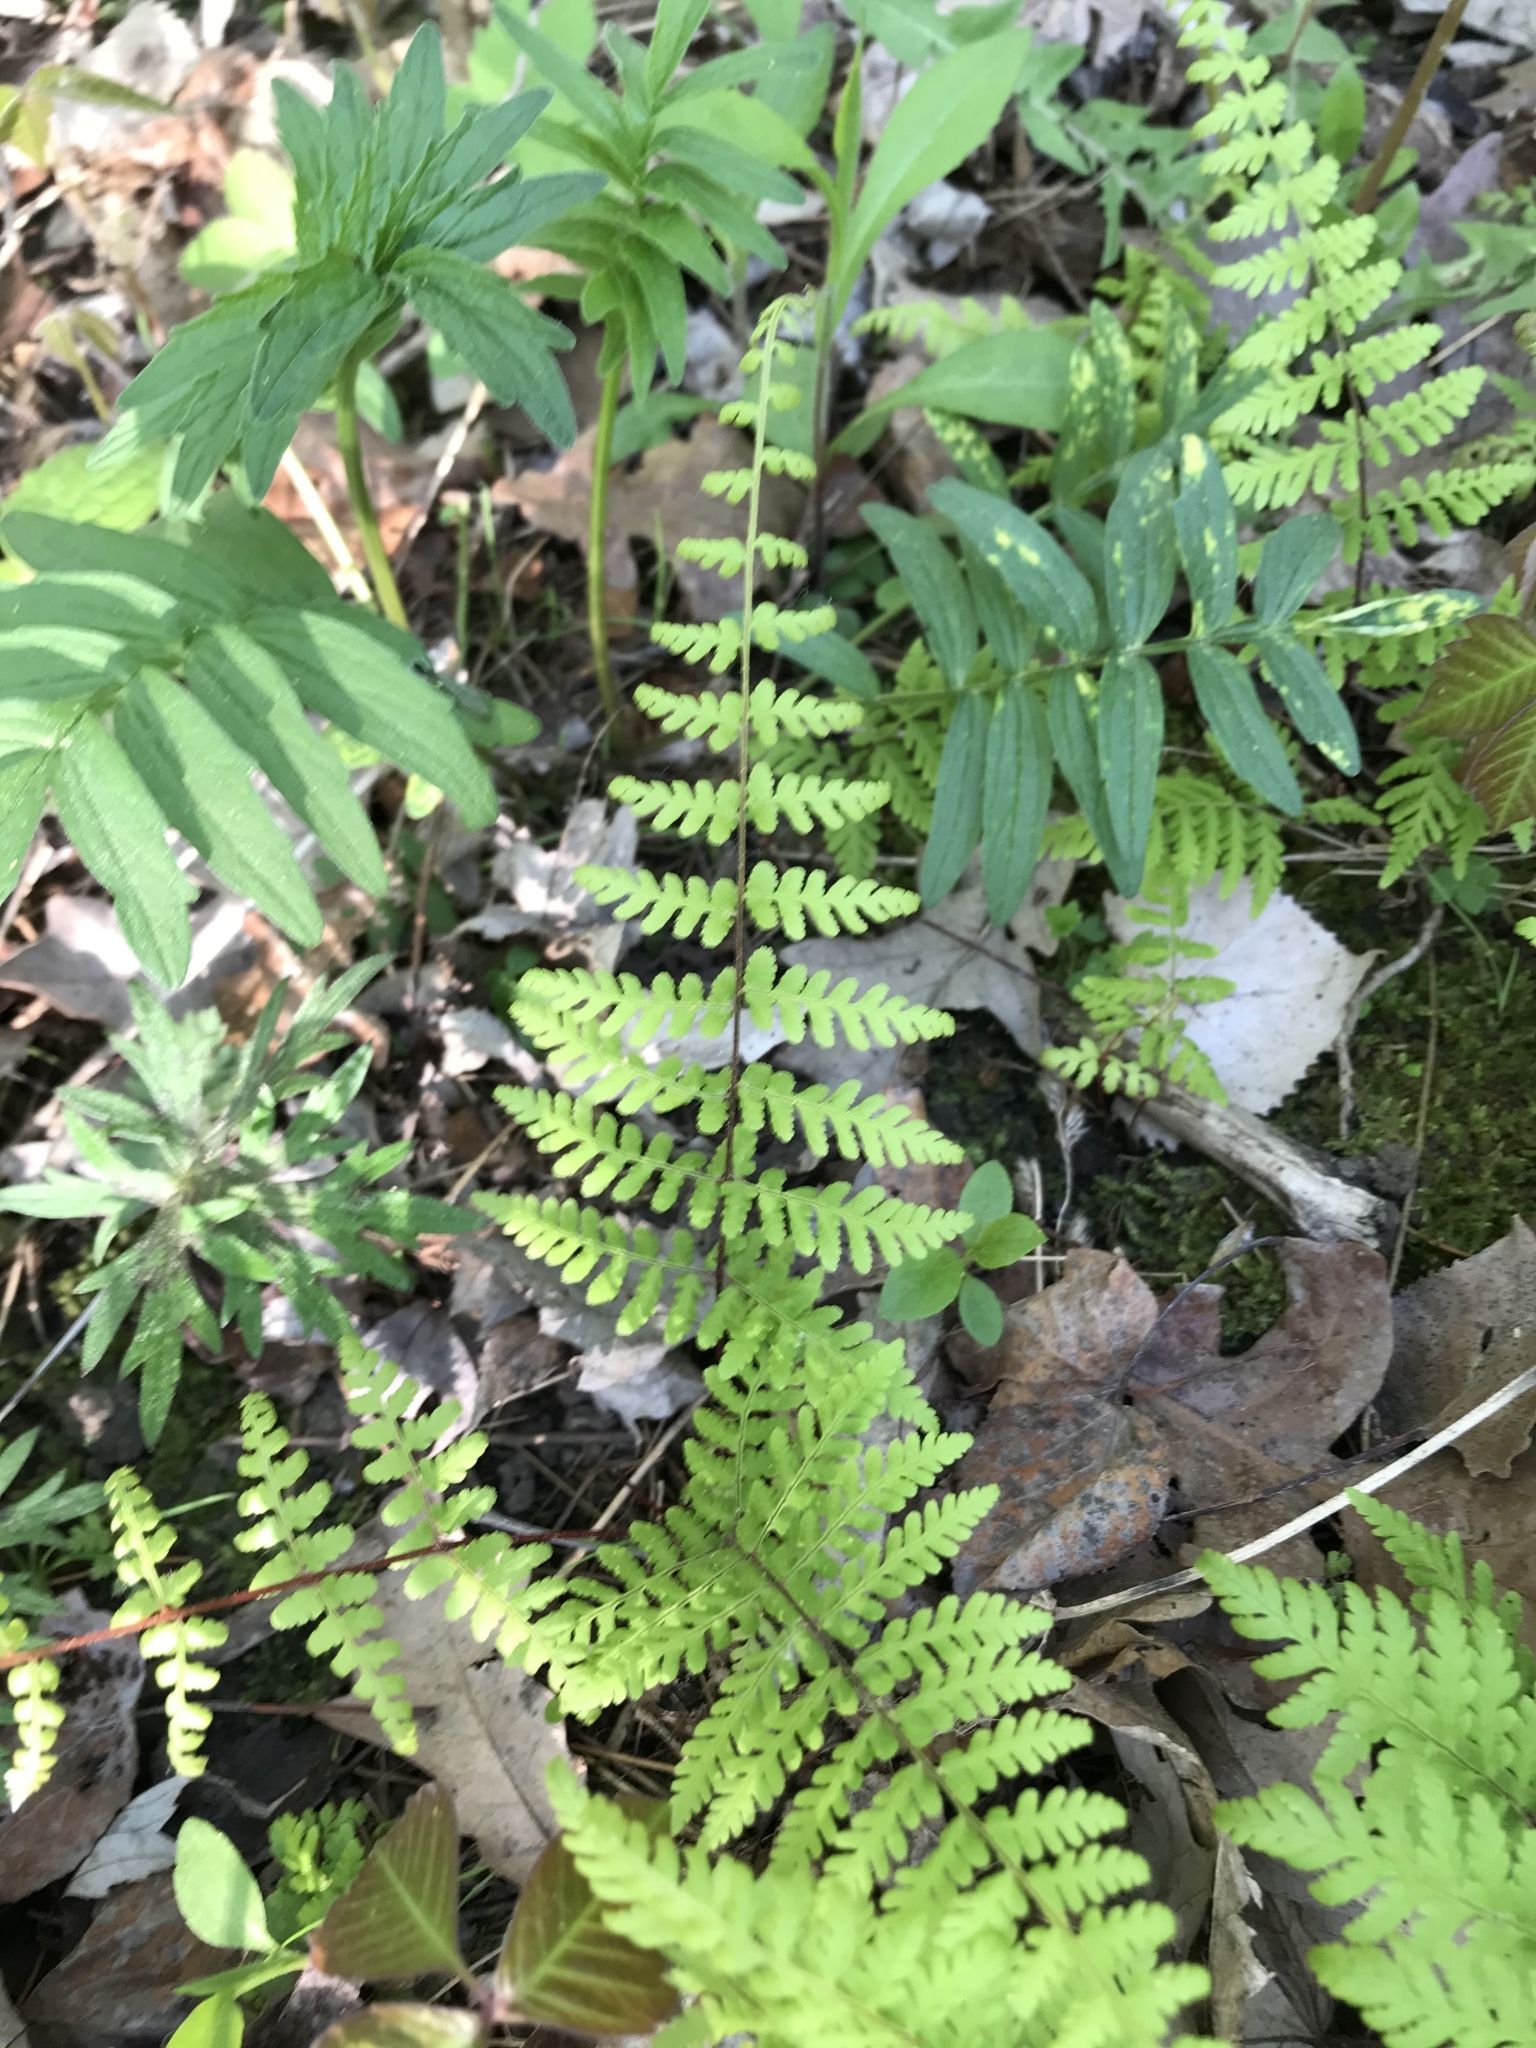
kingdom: Plantae
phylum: Tracheophyta
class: Polypodiopsida
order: Polypodiales
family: Cystopteridaceae
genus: Cystopteris
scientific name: Cystopteris bulbifera
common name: Bulblet bladder fern
